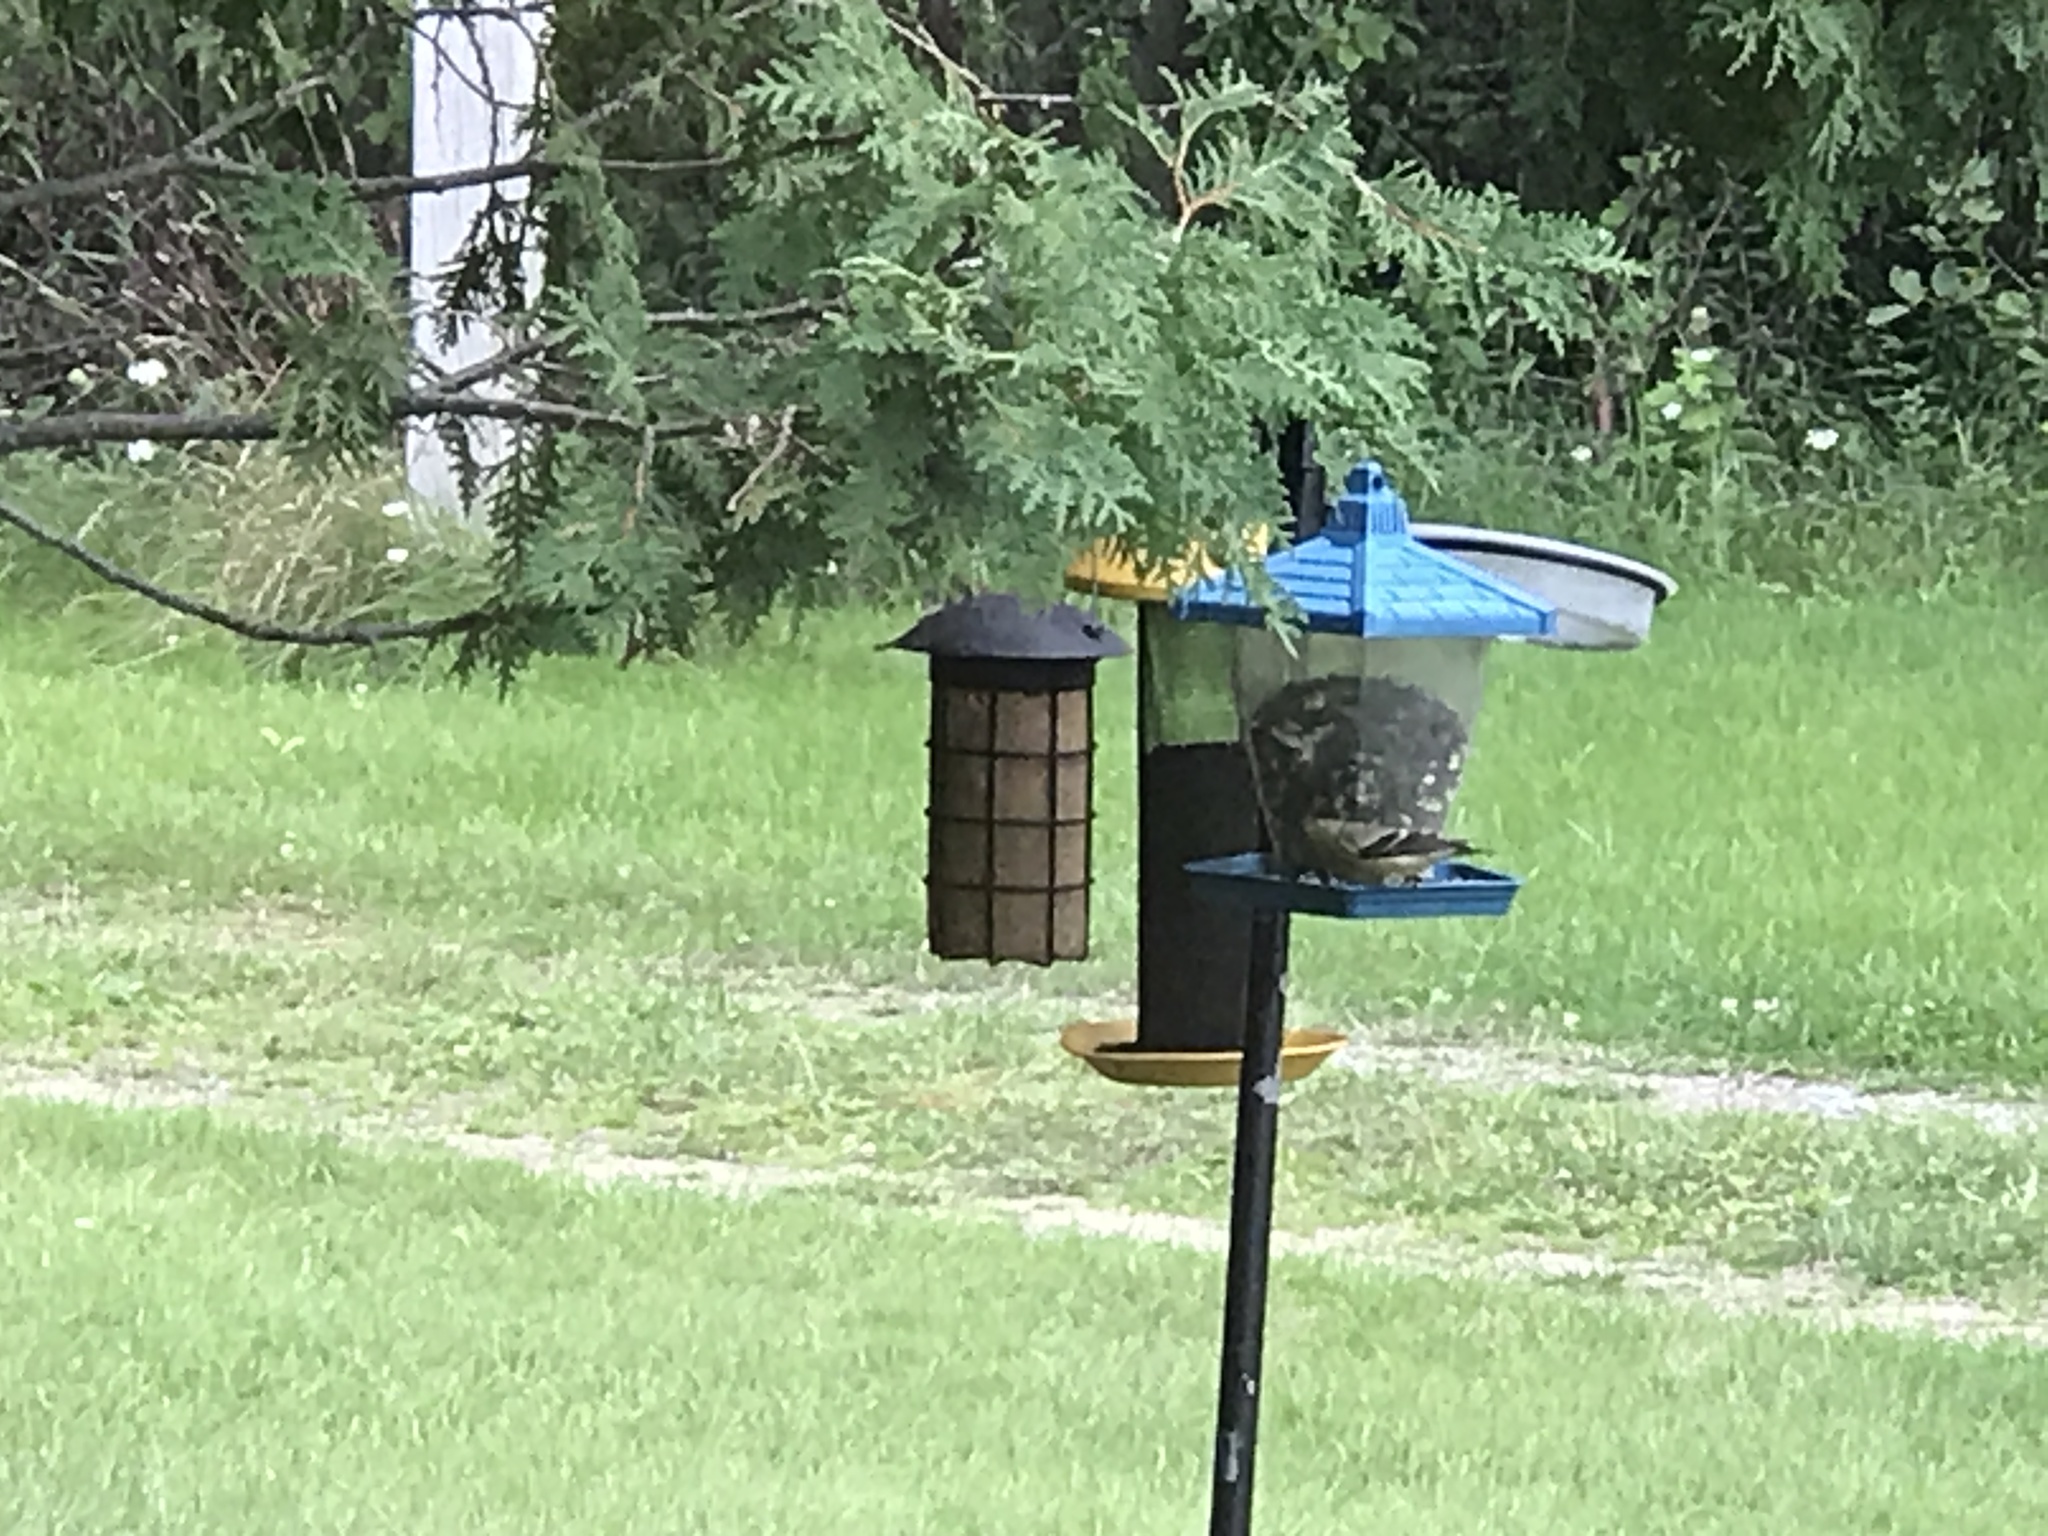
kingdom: Animalia
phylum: Chordata
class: Aves
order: Passeriformes
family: Fringillidae
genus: Spinus
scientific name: Spinus tristis
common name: American goldfinch
